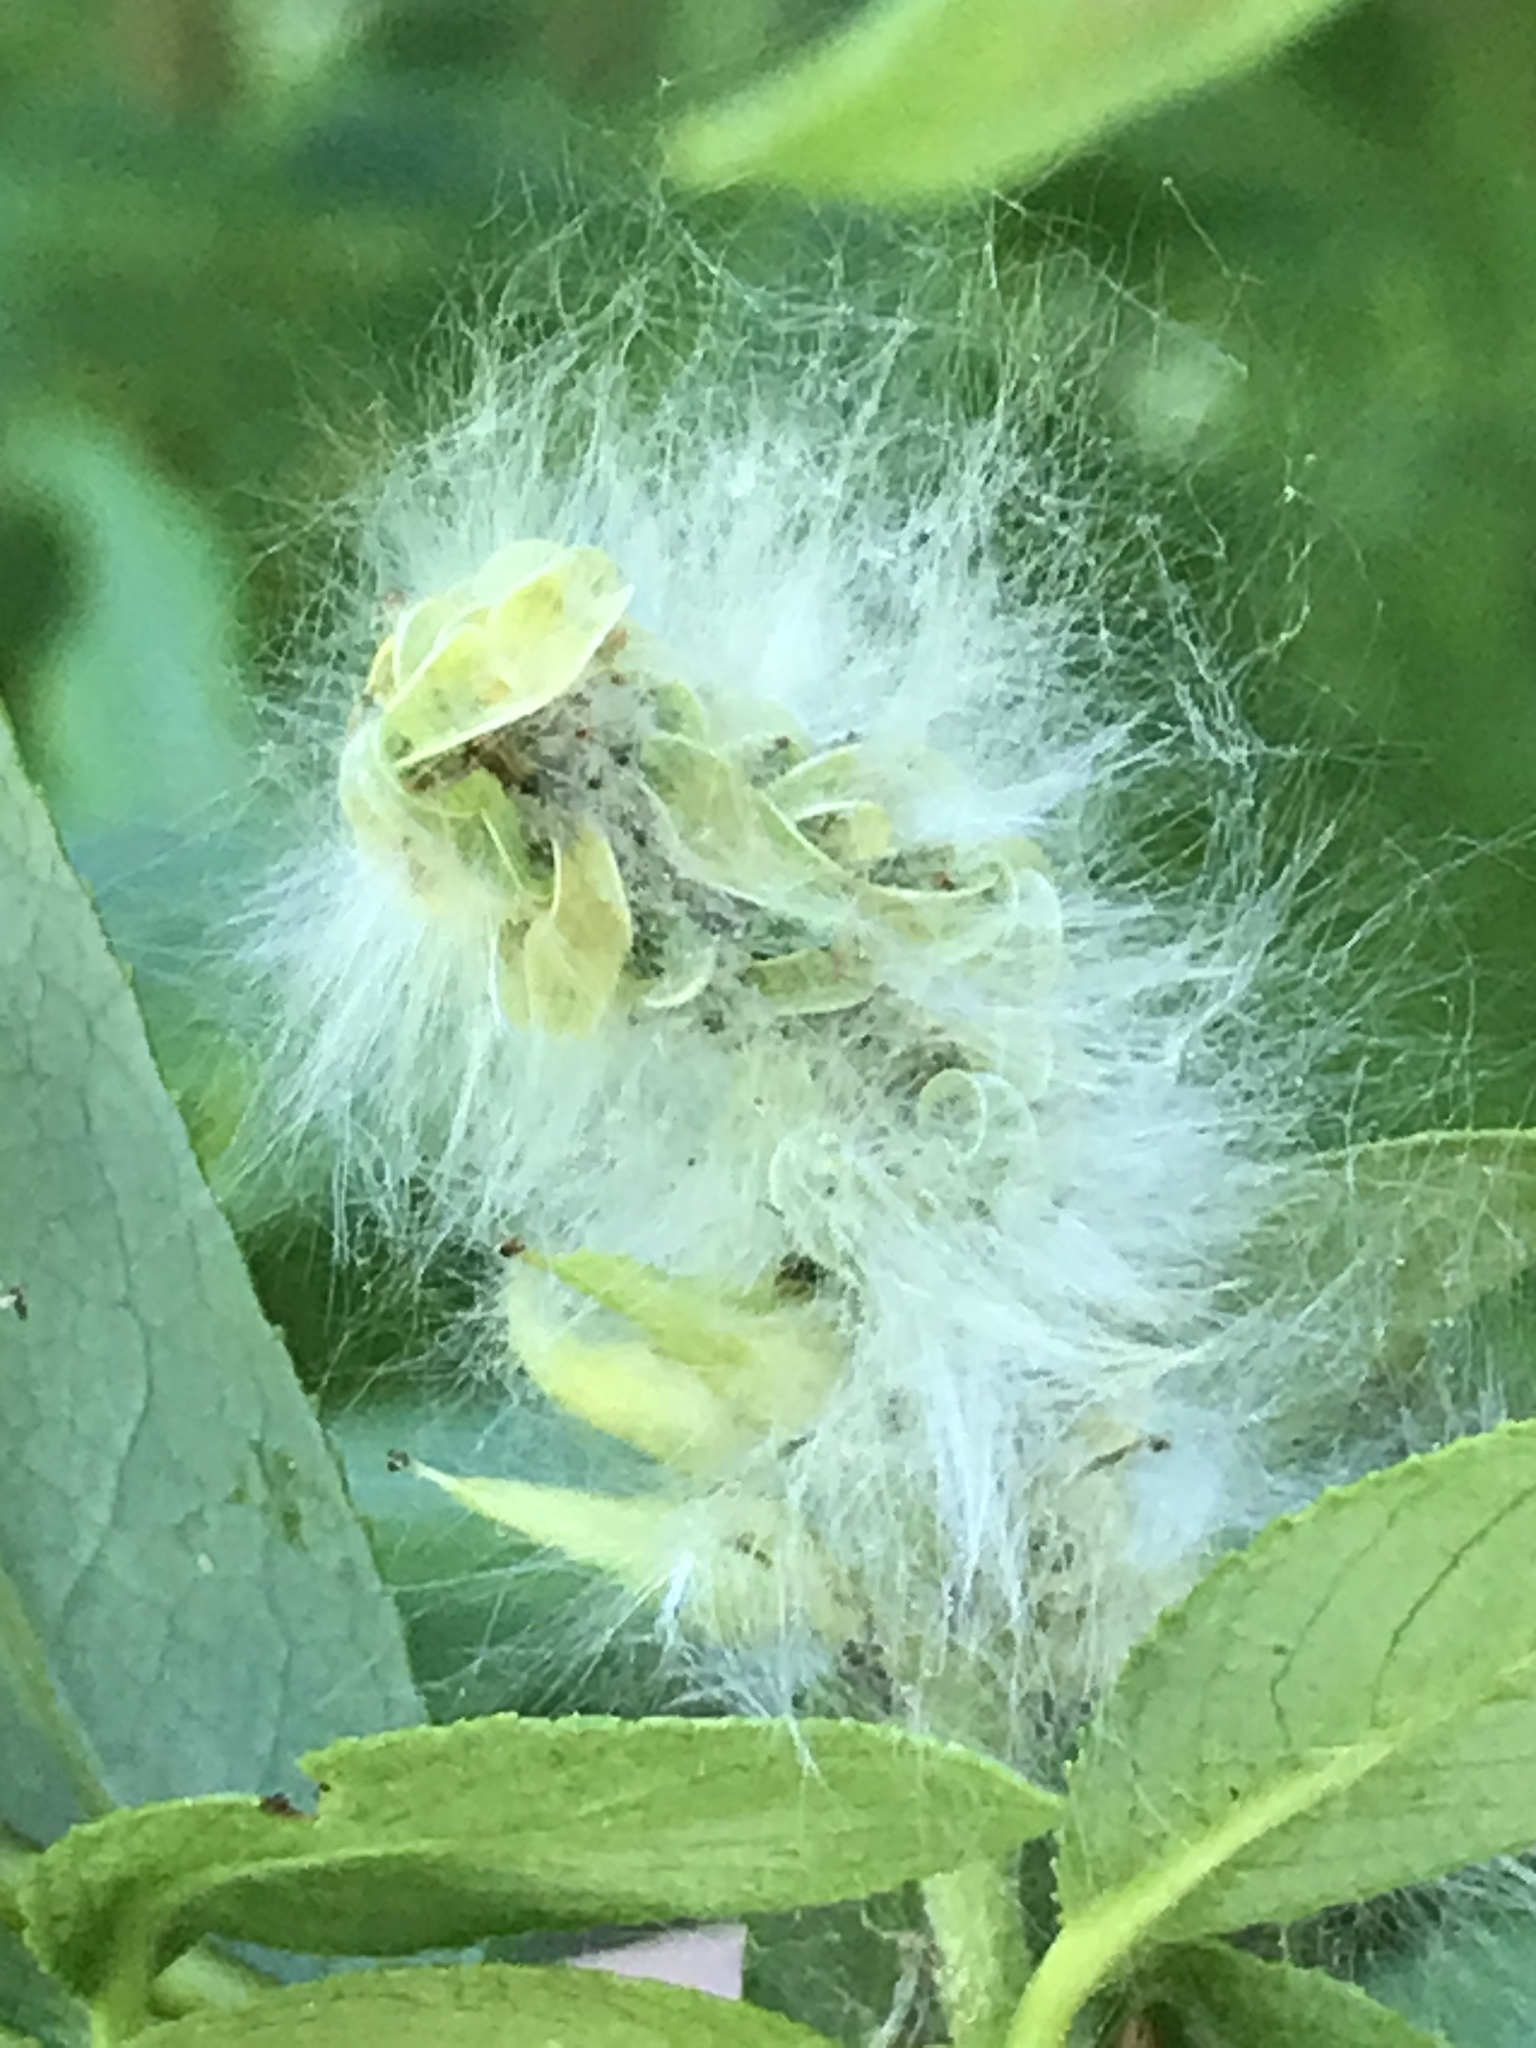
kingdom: Plantae
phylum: Tracheophyta
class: Magnoliopsida
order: Malpighiales
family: Salicaceae
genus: Salix
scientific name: Salix scouleriana
